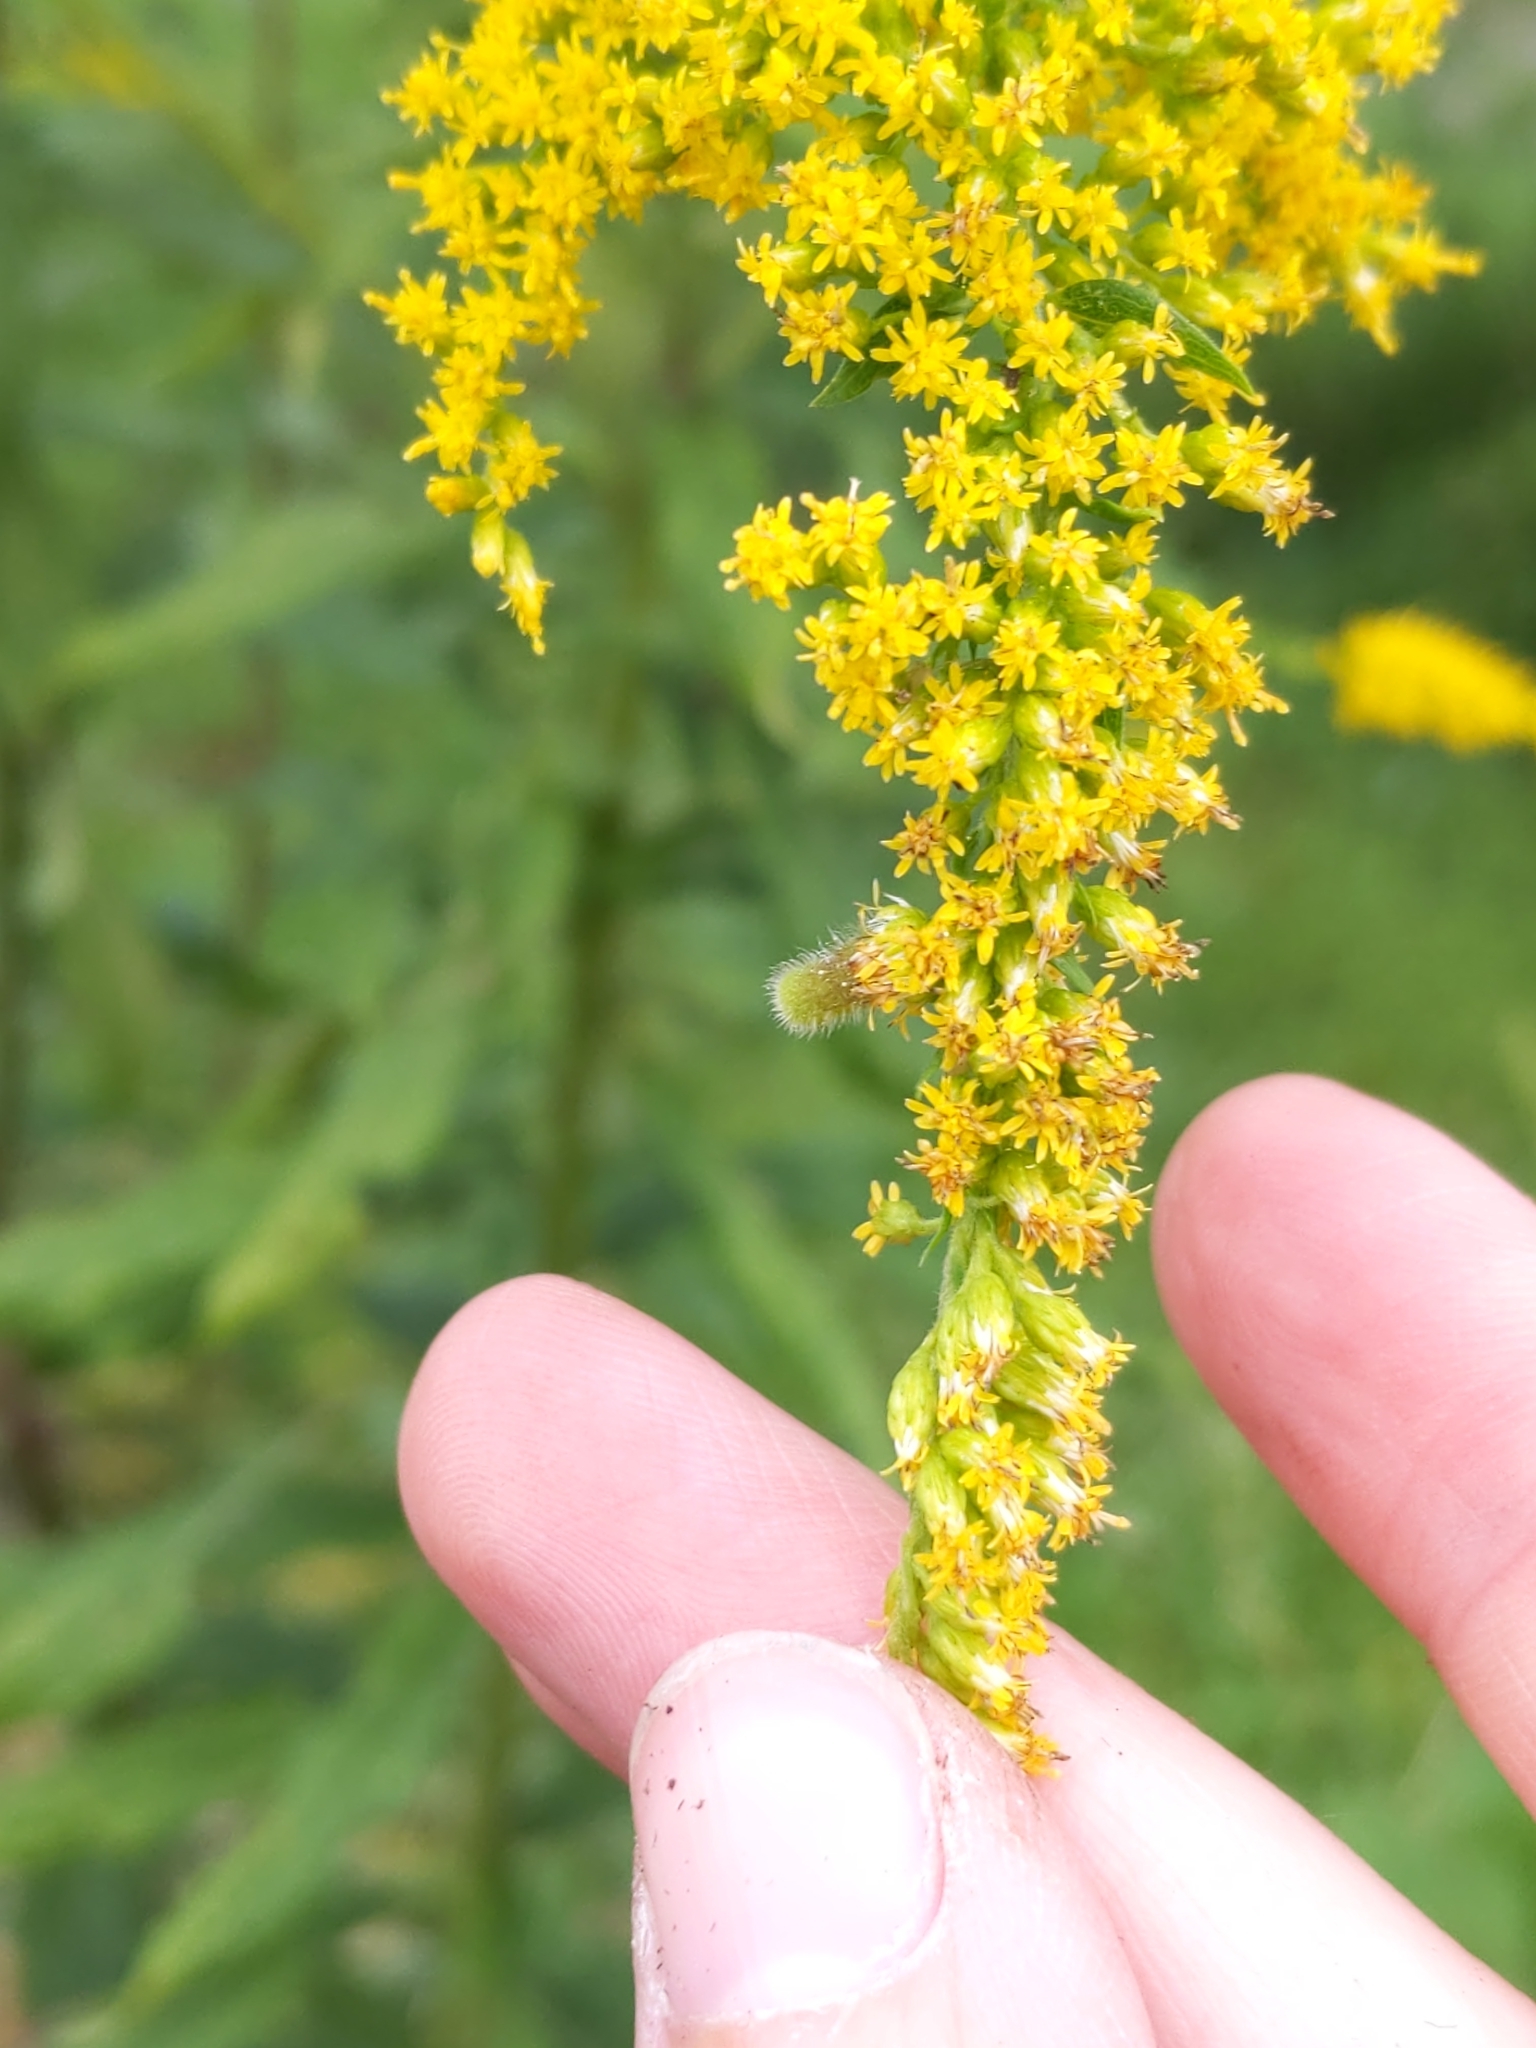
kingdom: Animalia
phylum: Arthropoda
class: Insecta
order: Diptera
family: Cecidomyiidae
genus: Rhopalomyia
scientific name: Rhopalomyia anthophila
